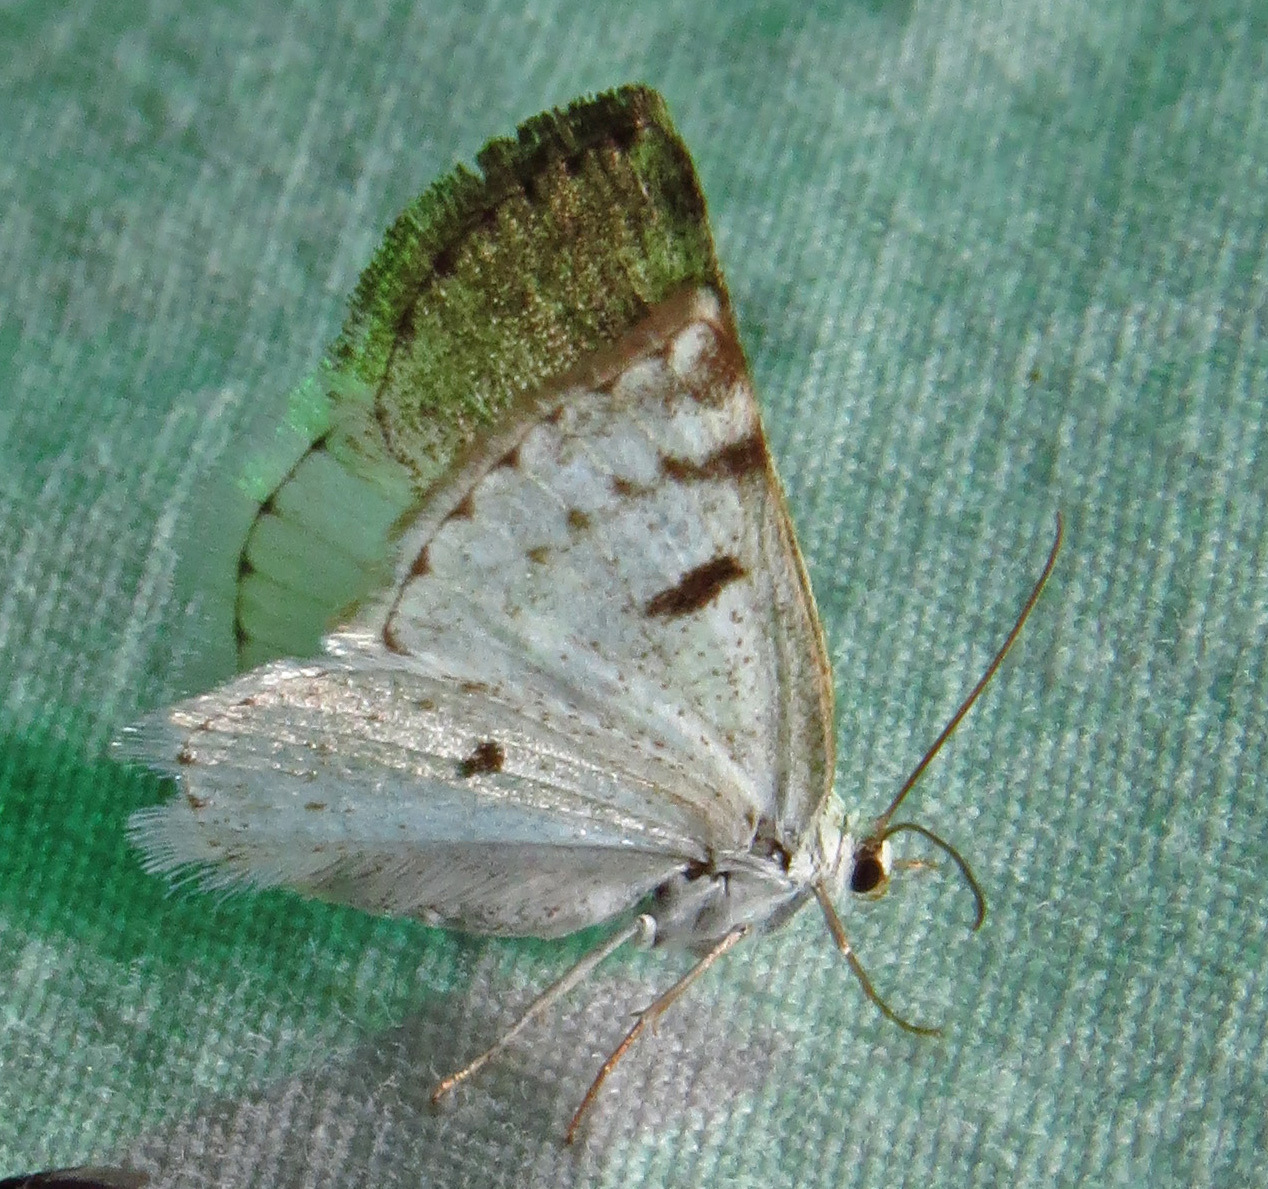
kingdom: Animalia
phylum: Arthropoda
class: Insecta
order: Lepidoptera
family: Geometridae
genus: Lomographa
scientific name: Lomographa semiclarata
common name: Bluish spring moth
